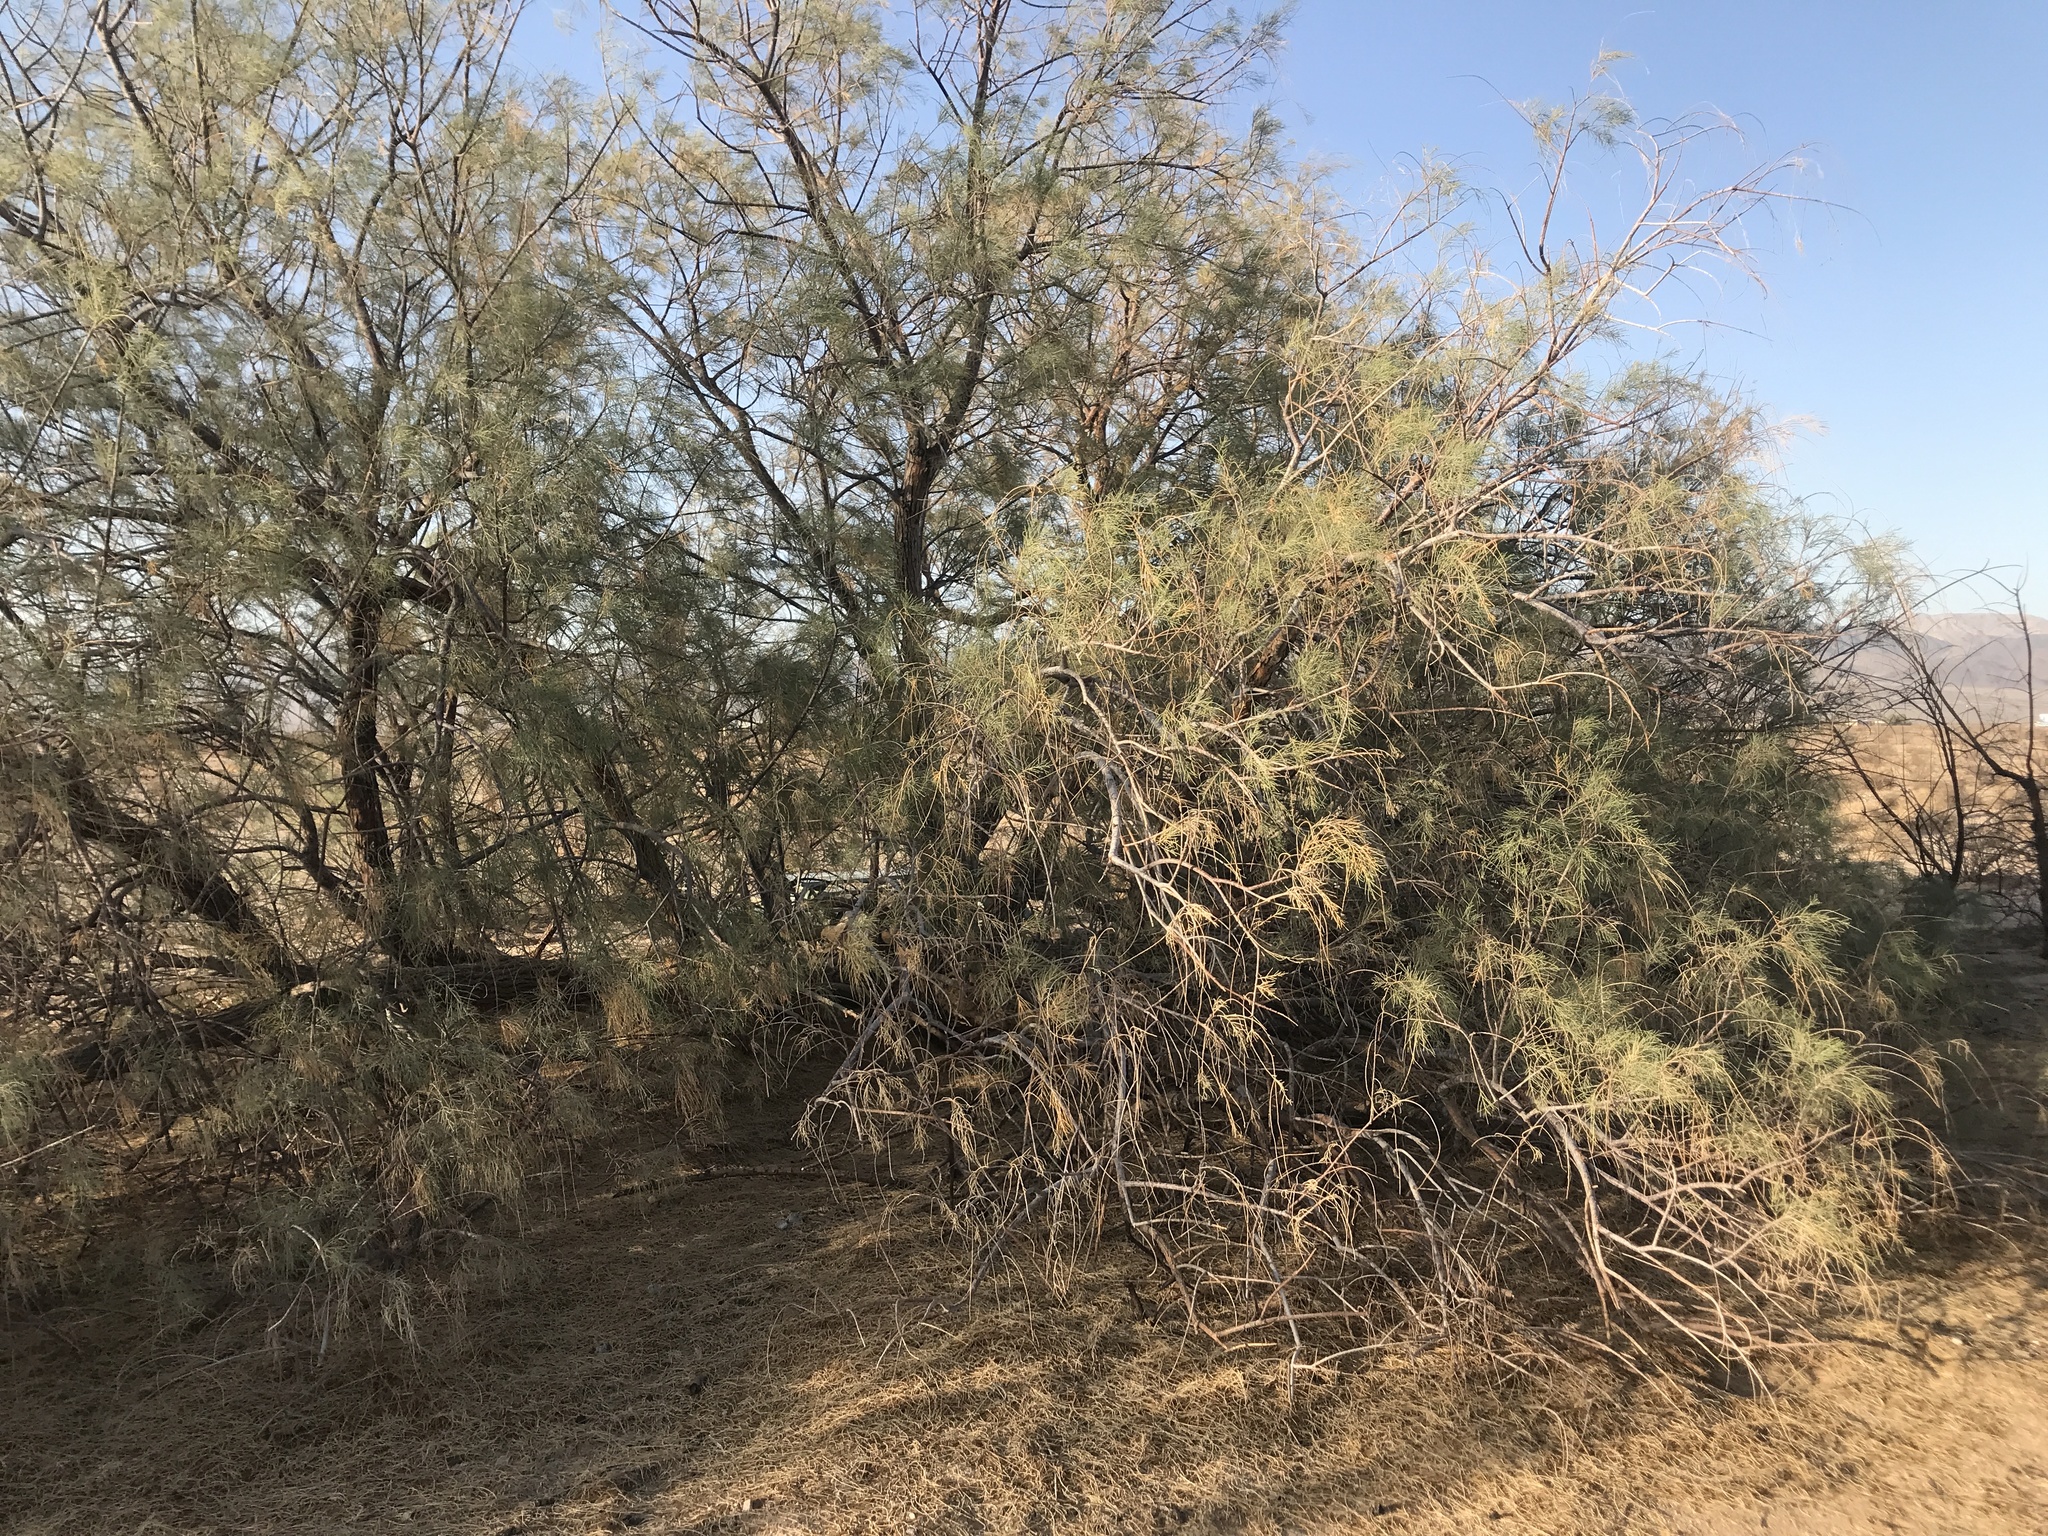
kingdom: Plantae
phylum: Tracheophyta
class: Magnoliopsida
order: Caryophyllales
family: Tamaricaceae
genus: Tamarix
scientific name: Tamarix aphylla
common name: Athel tamarisk
